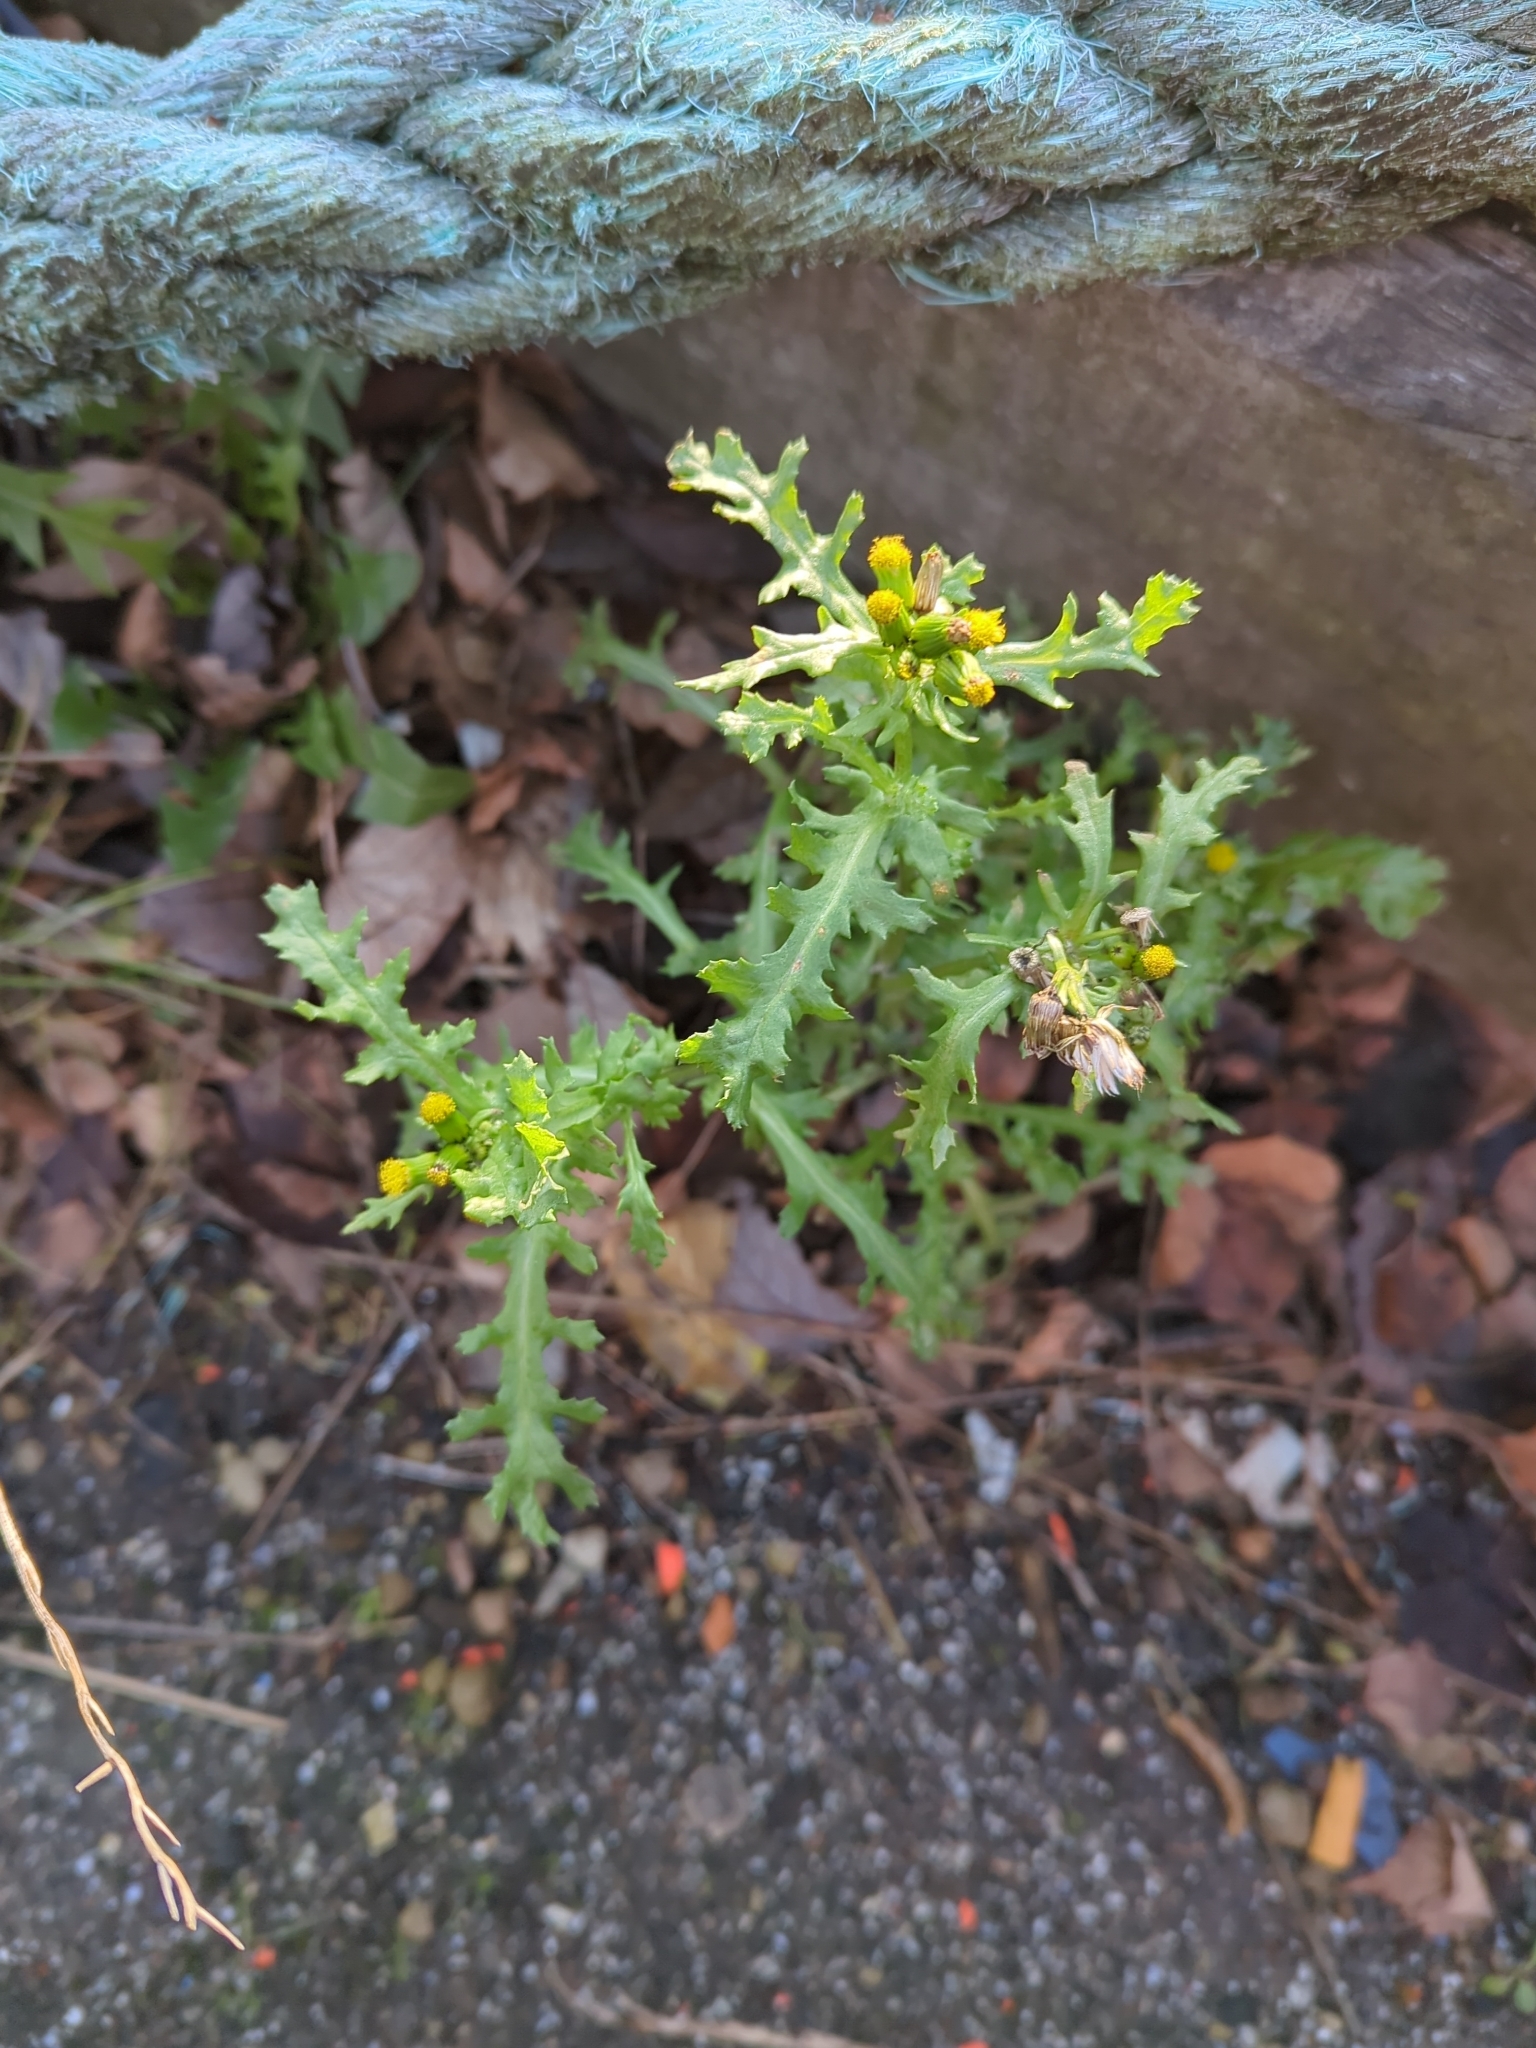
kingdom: Plantae
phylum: Tracheophyta
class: Magnoliopsida
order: Asterales
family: Asteraceae
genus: Senecio
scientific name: Senecio vulgaris
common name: Old-man-in-the-spring
